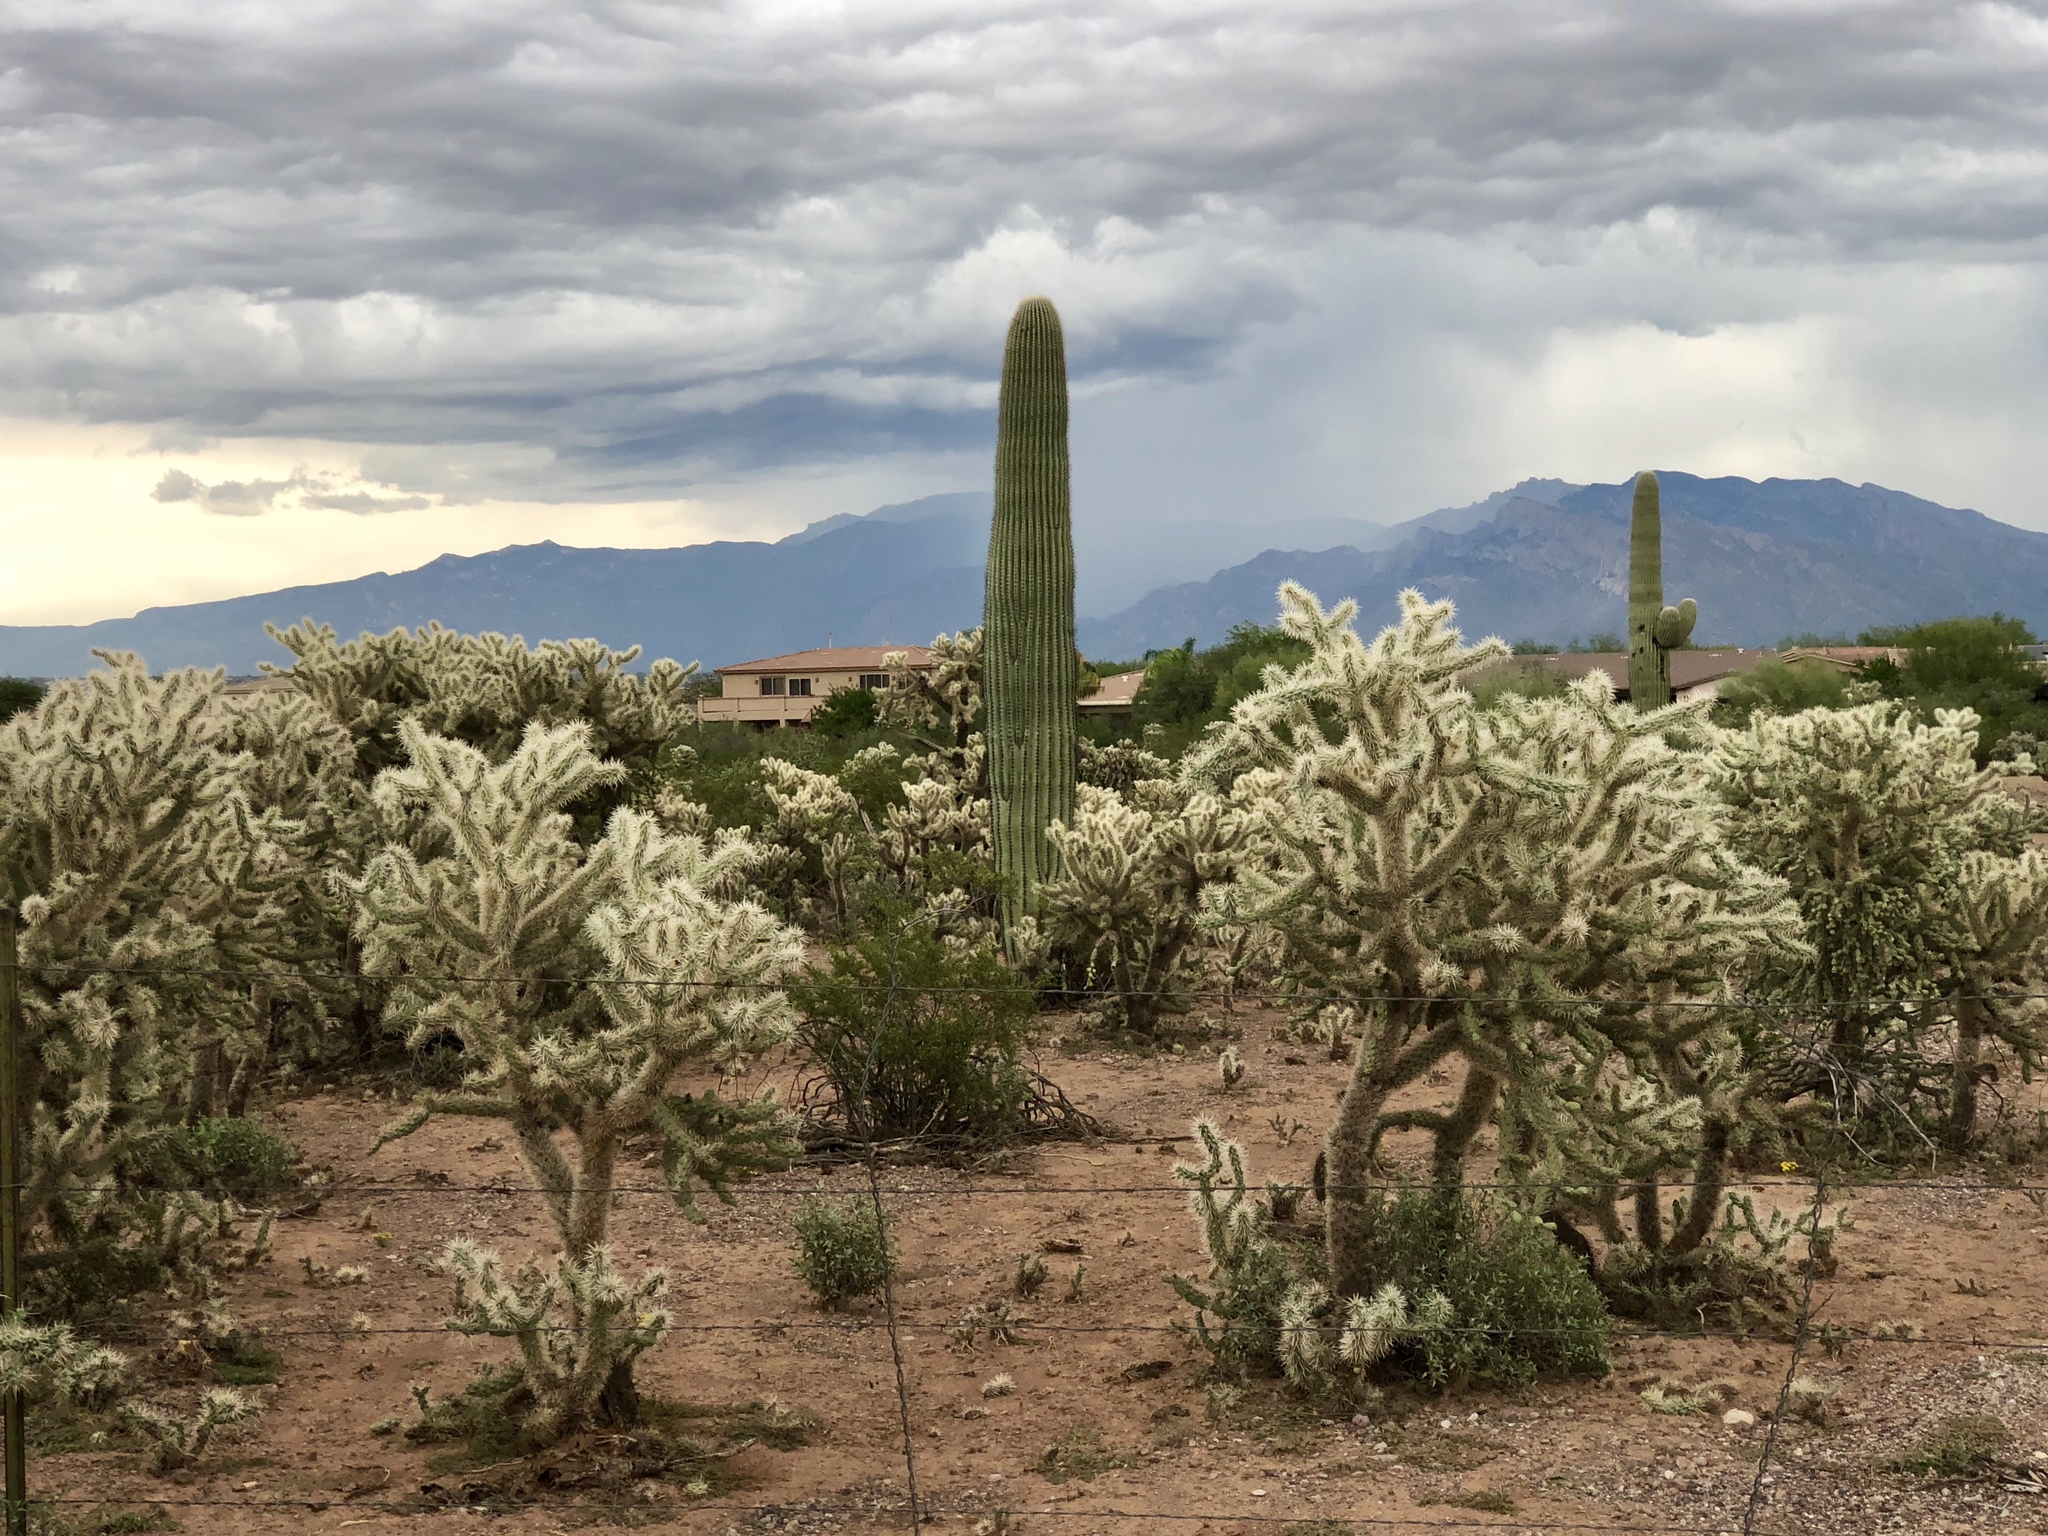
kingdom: Plantae
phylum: Tracheophyta
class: Magnoliopsida
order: Caryophyllales
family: Cactaceae
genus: Carnegiea
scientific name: Carnegiea gigantea
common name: Saguaro
